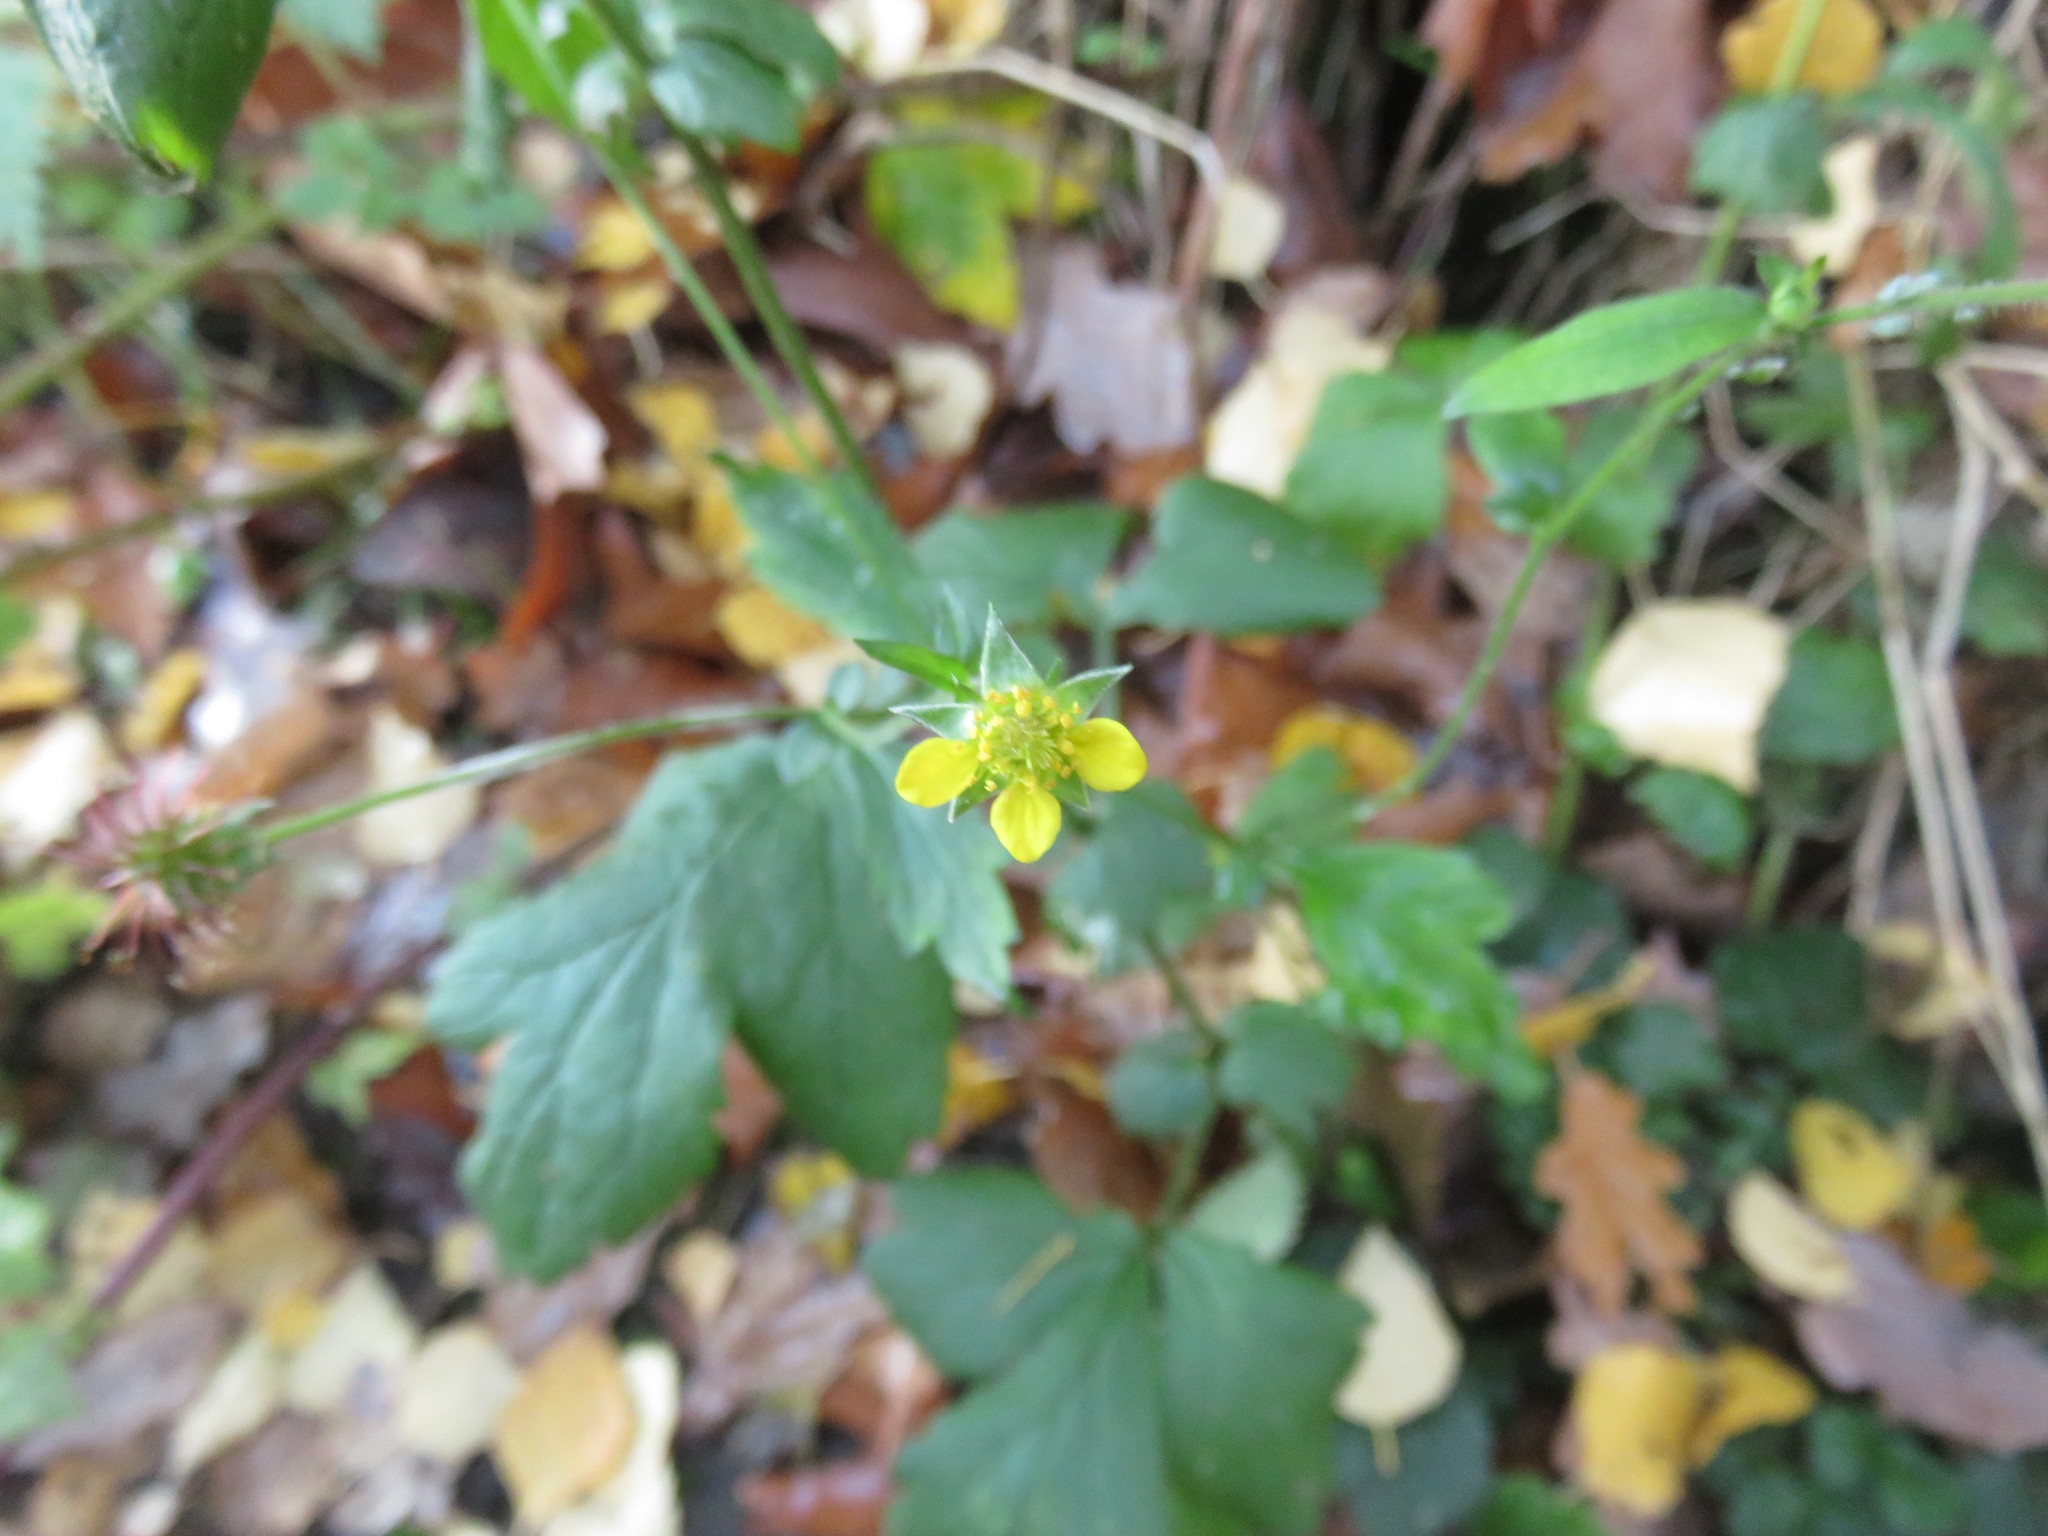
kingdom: Plantae
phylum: Tracheophyta
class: Magnoliopsida
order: Rosales
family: Rosaceae
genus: Geum
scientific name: Geum urbanum
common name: Wood avens
